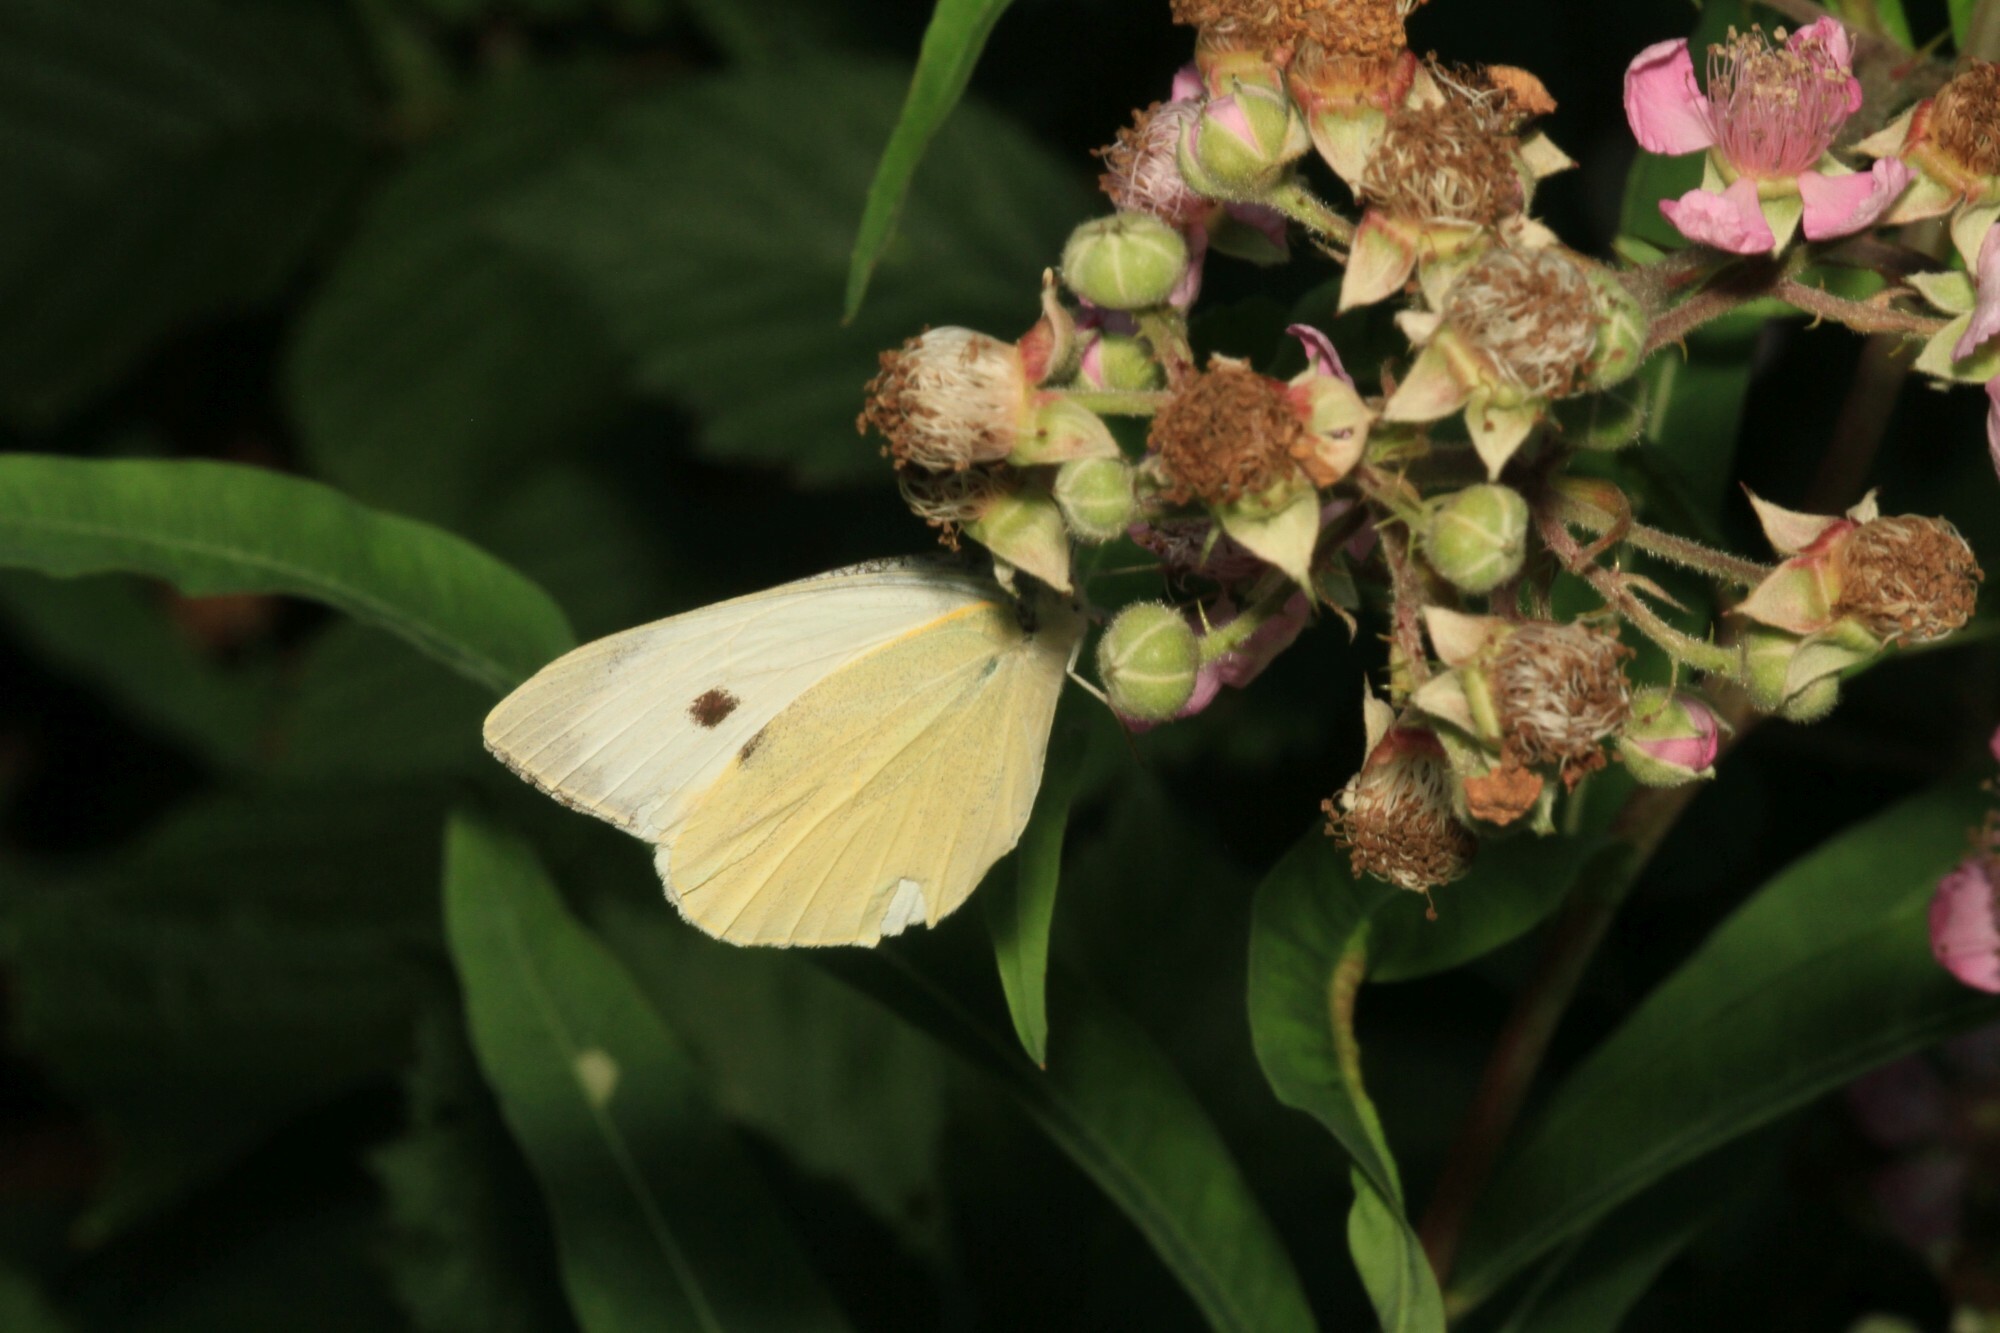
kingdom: Animalia
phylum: Arthropoda
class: Insecta
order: Lepidoptera
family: Pieridae
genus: Pieris
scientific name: Pieris brassicae
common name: Large white
